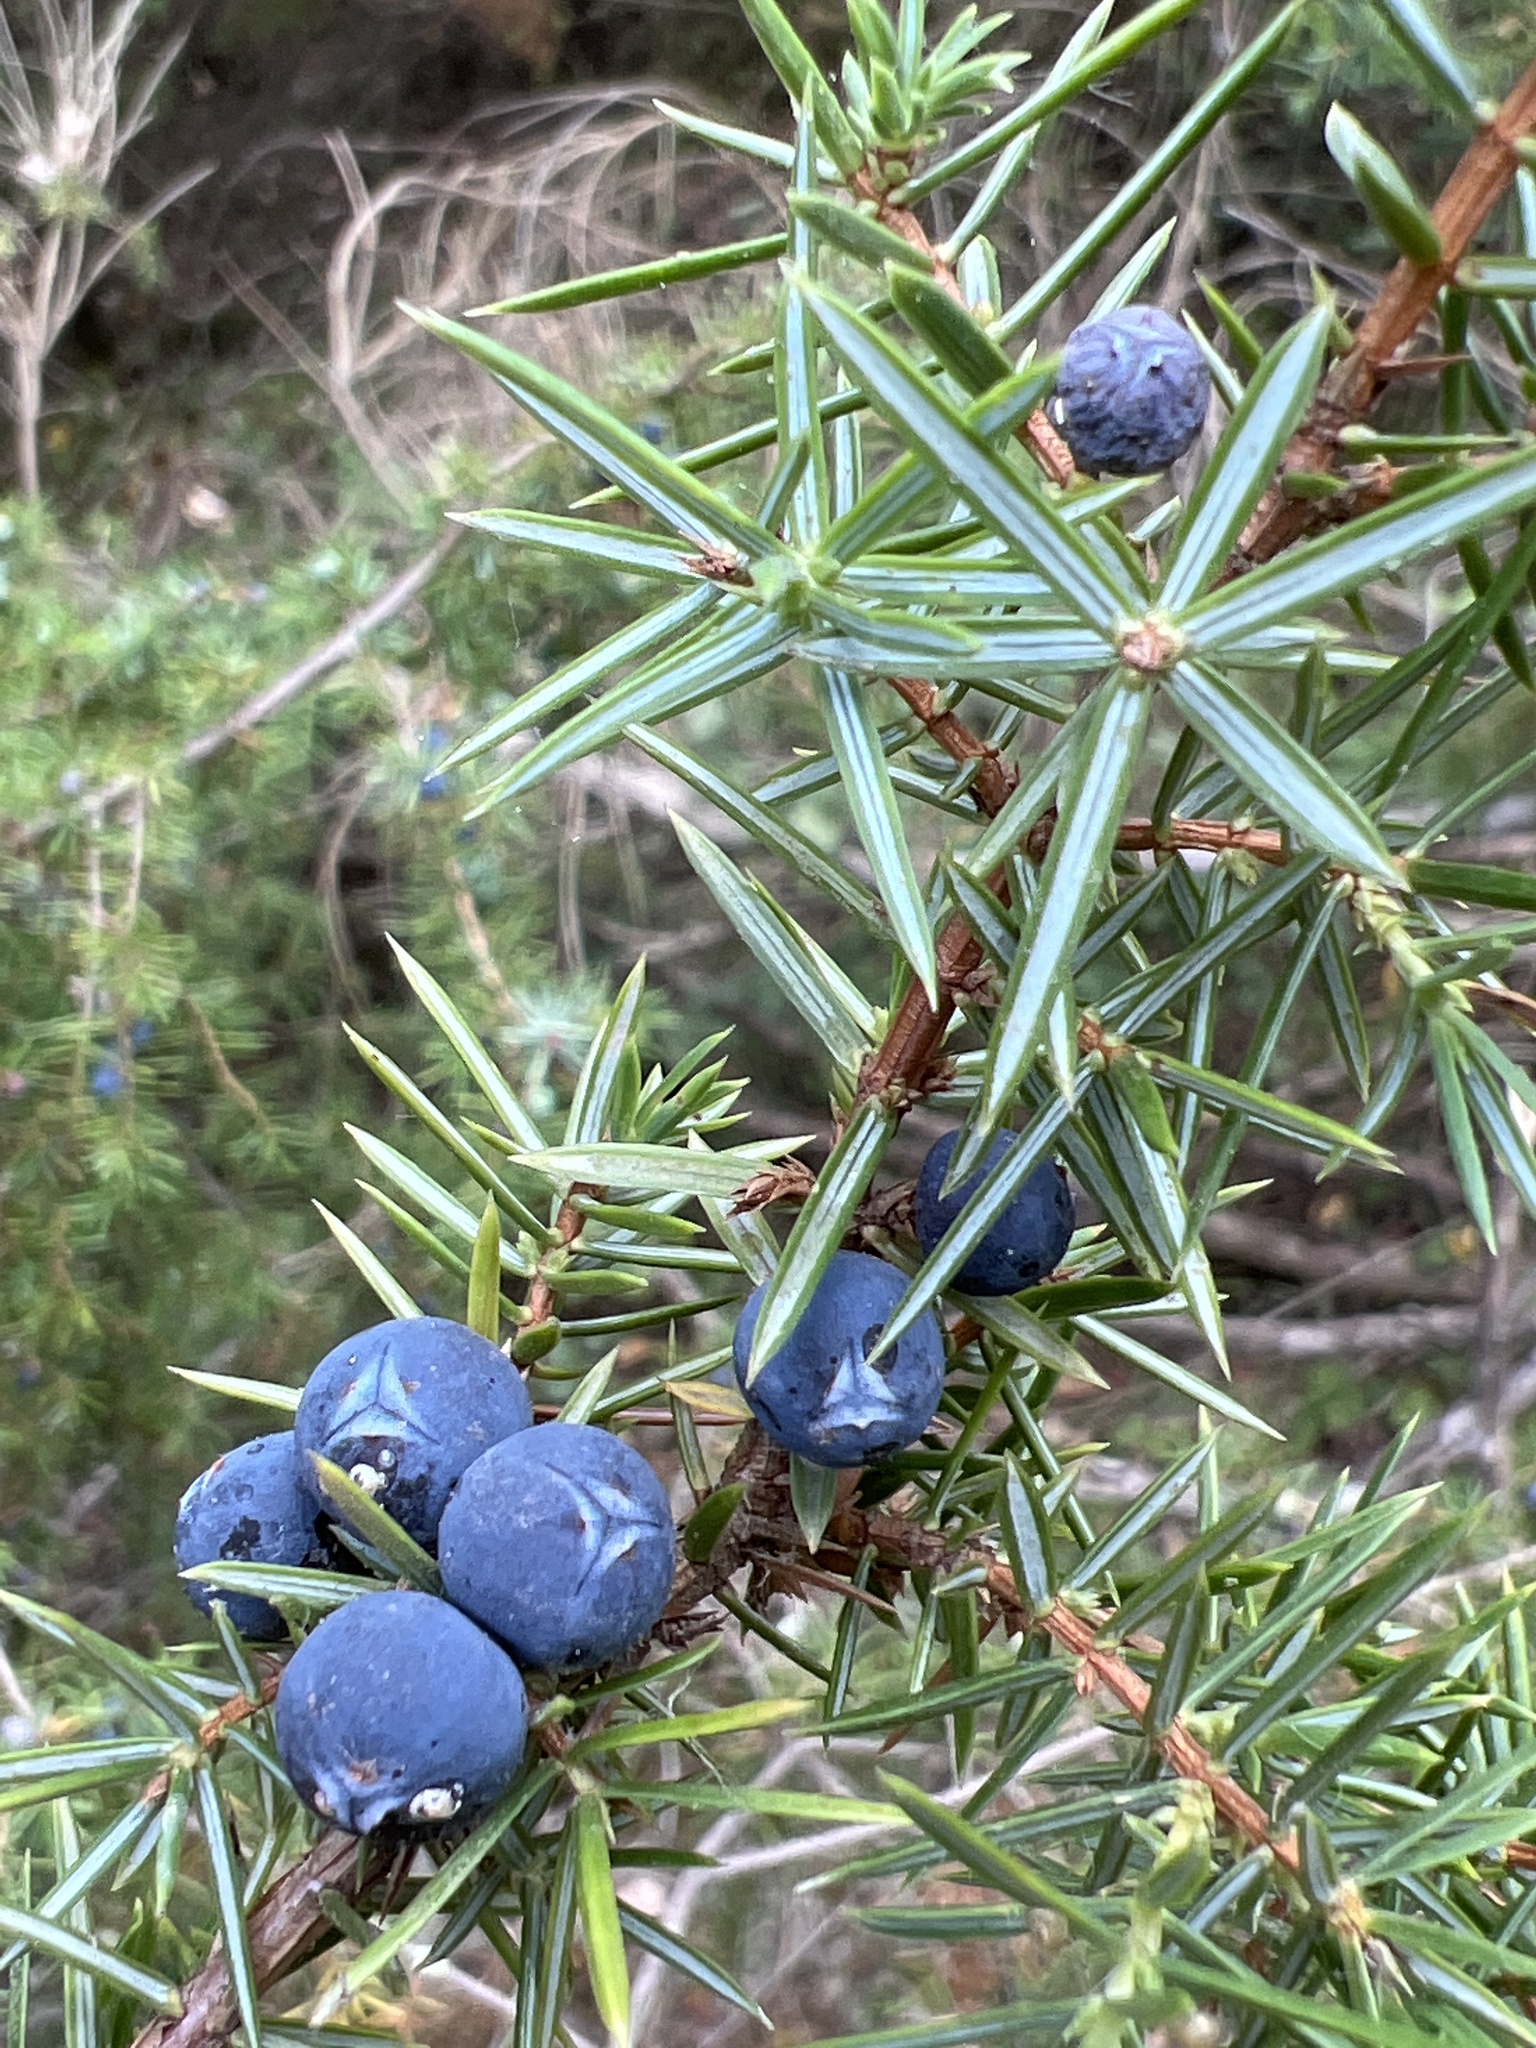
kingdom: Plantae
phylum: Tracheophyta
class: Pinopsida
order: Pinales
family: Cupressaceae
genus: Juniperus
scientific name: Juniperus communis
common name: Common juniper
